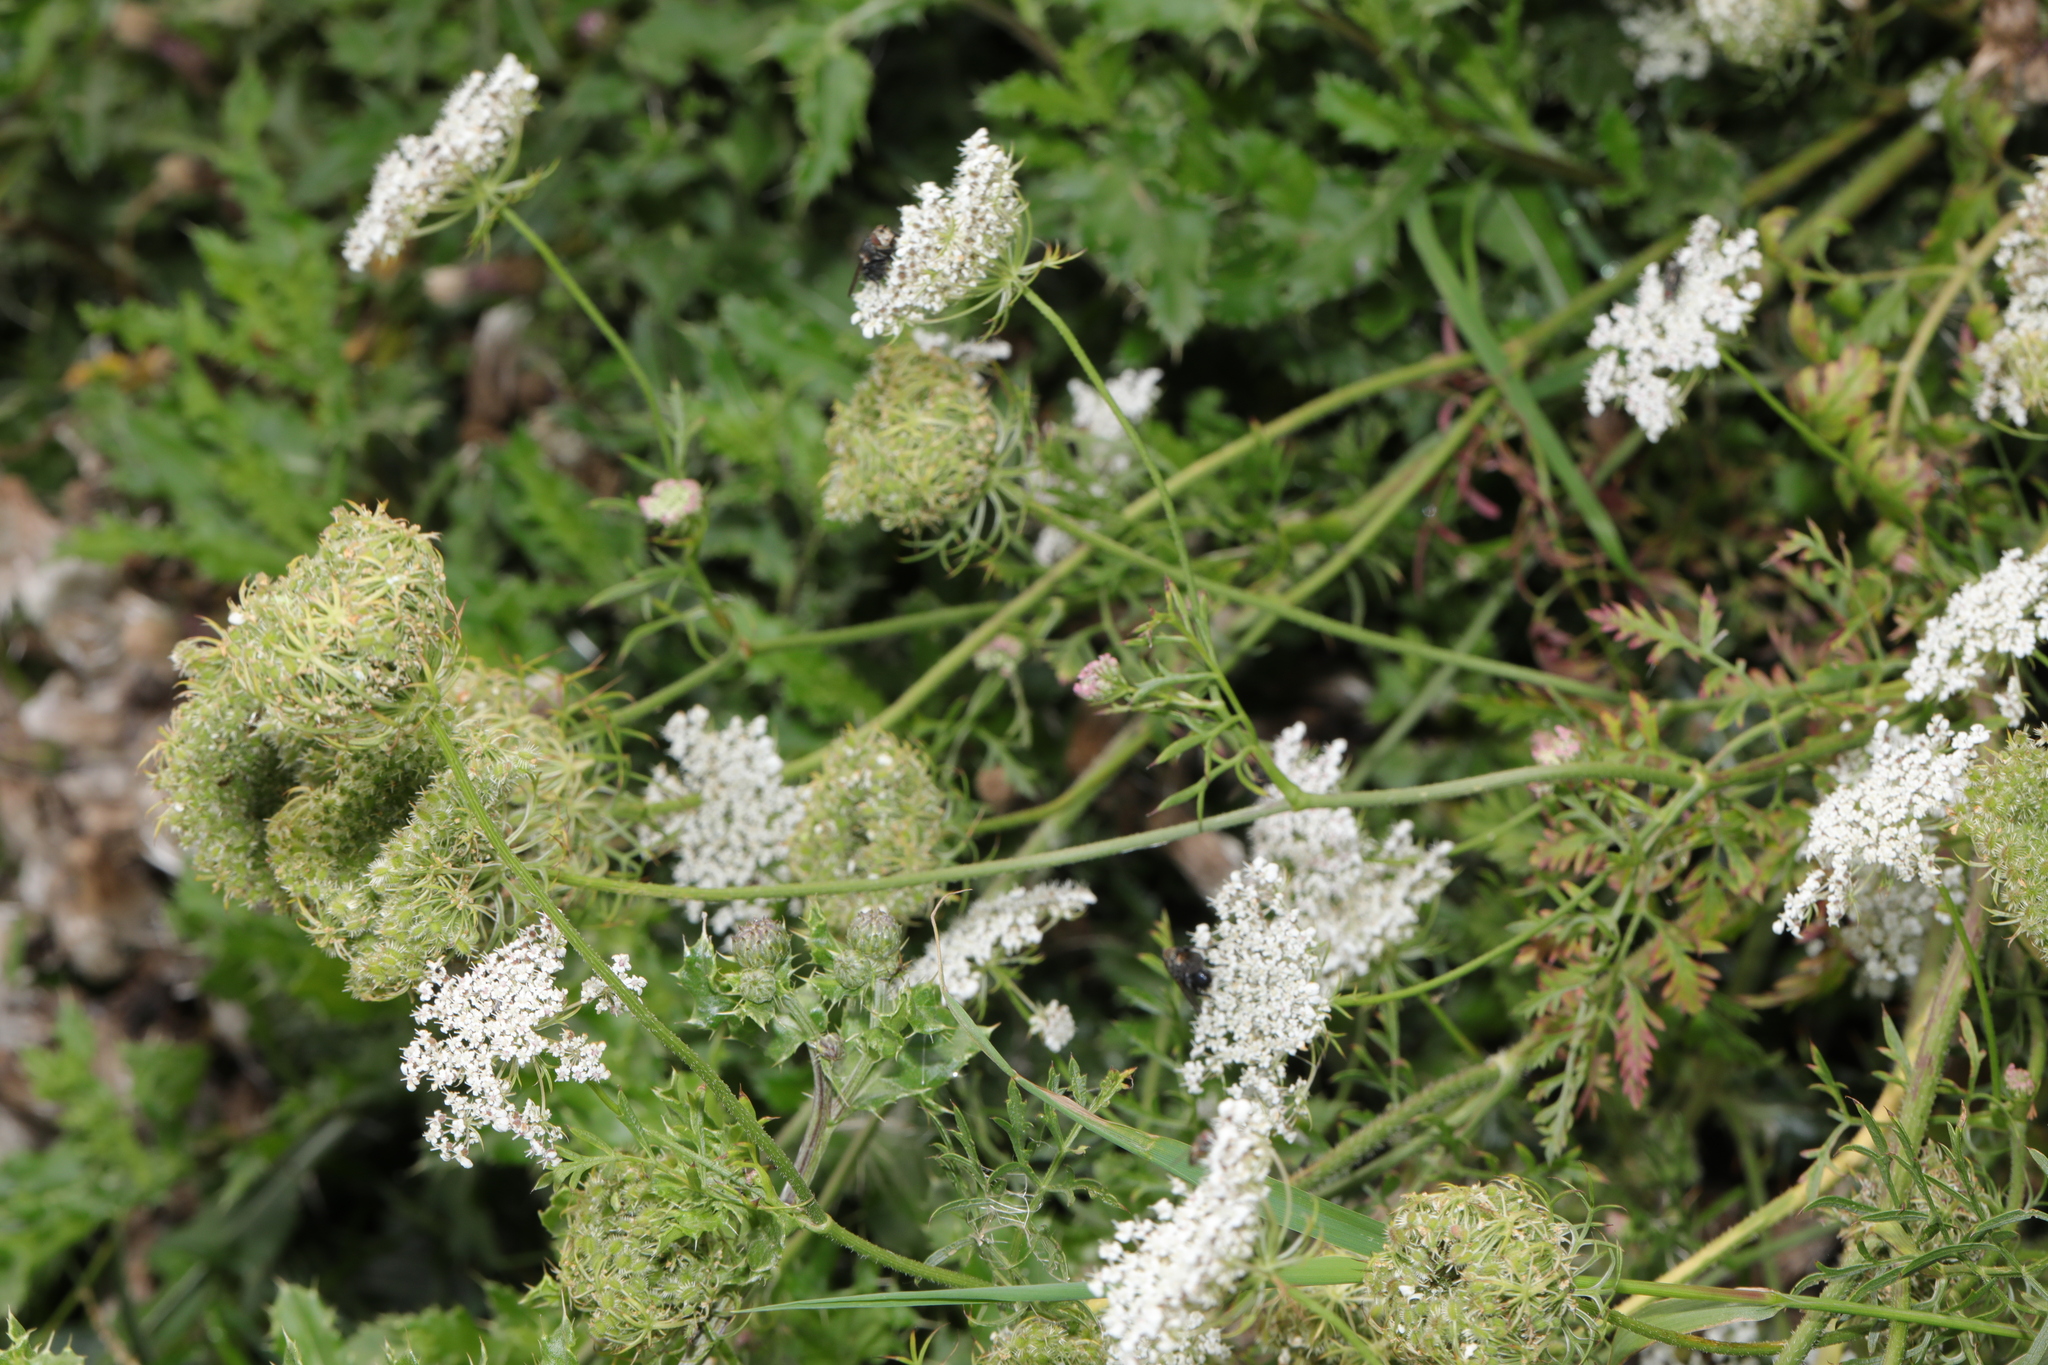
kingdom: Plantae
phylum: Tracheophyta
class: Magnoliopsida
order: Apiales
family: Apiaceae
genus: Daucus
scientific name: Daucus carota
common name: Wild carrot
